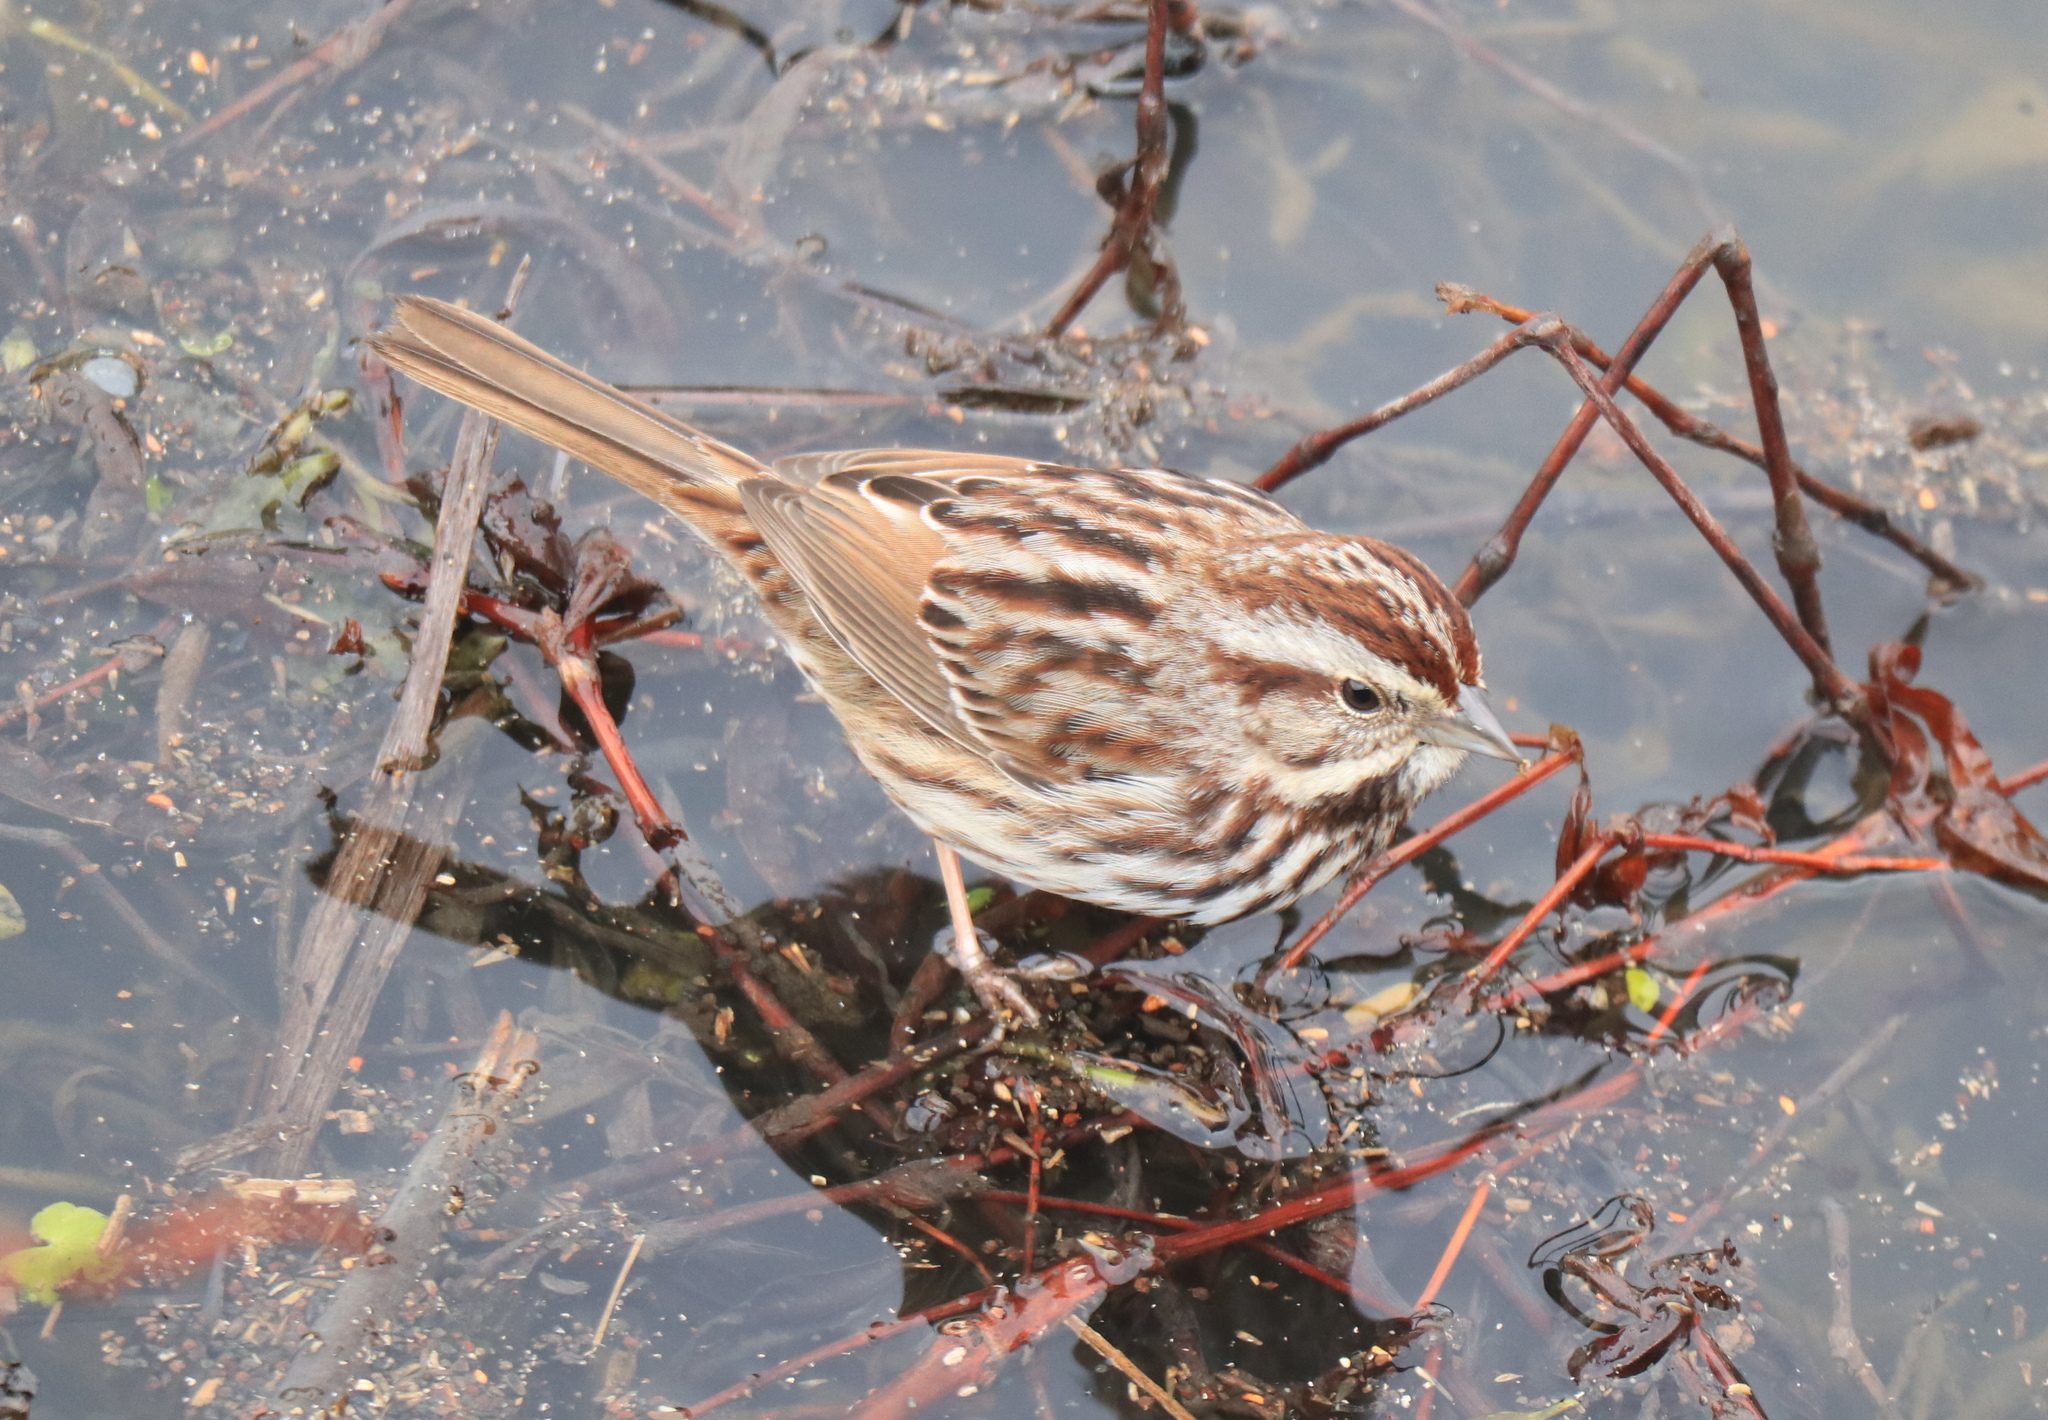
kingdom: Animalia
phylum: Chordata
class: Aves
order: Passeriformes
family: Passerellidae
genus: Melospiza
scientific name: Melospiza melodia
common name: Song sparrow
